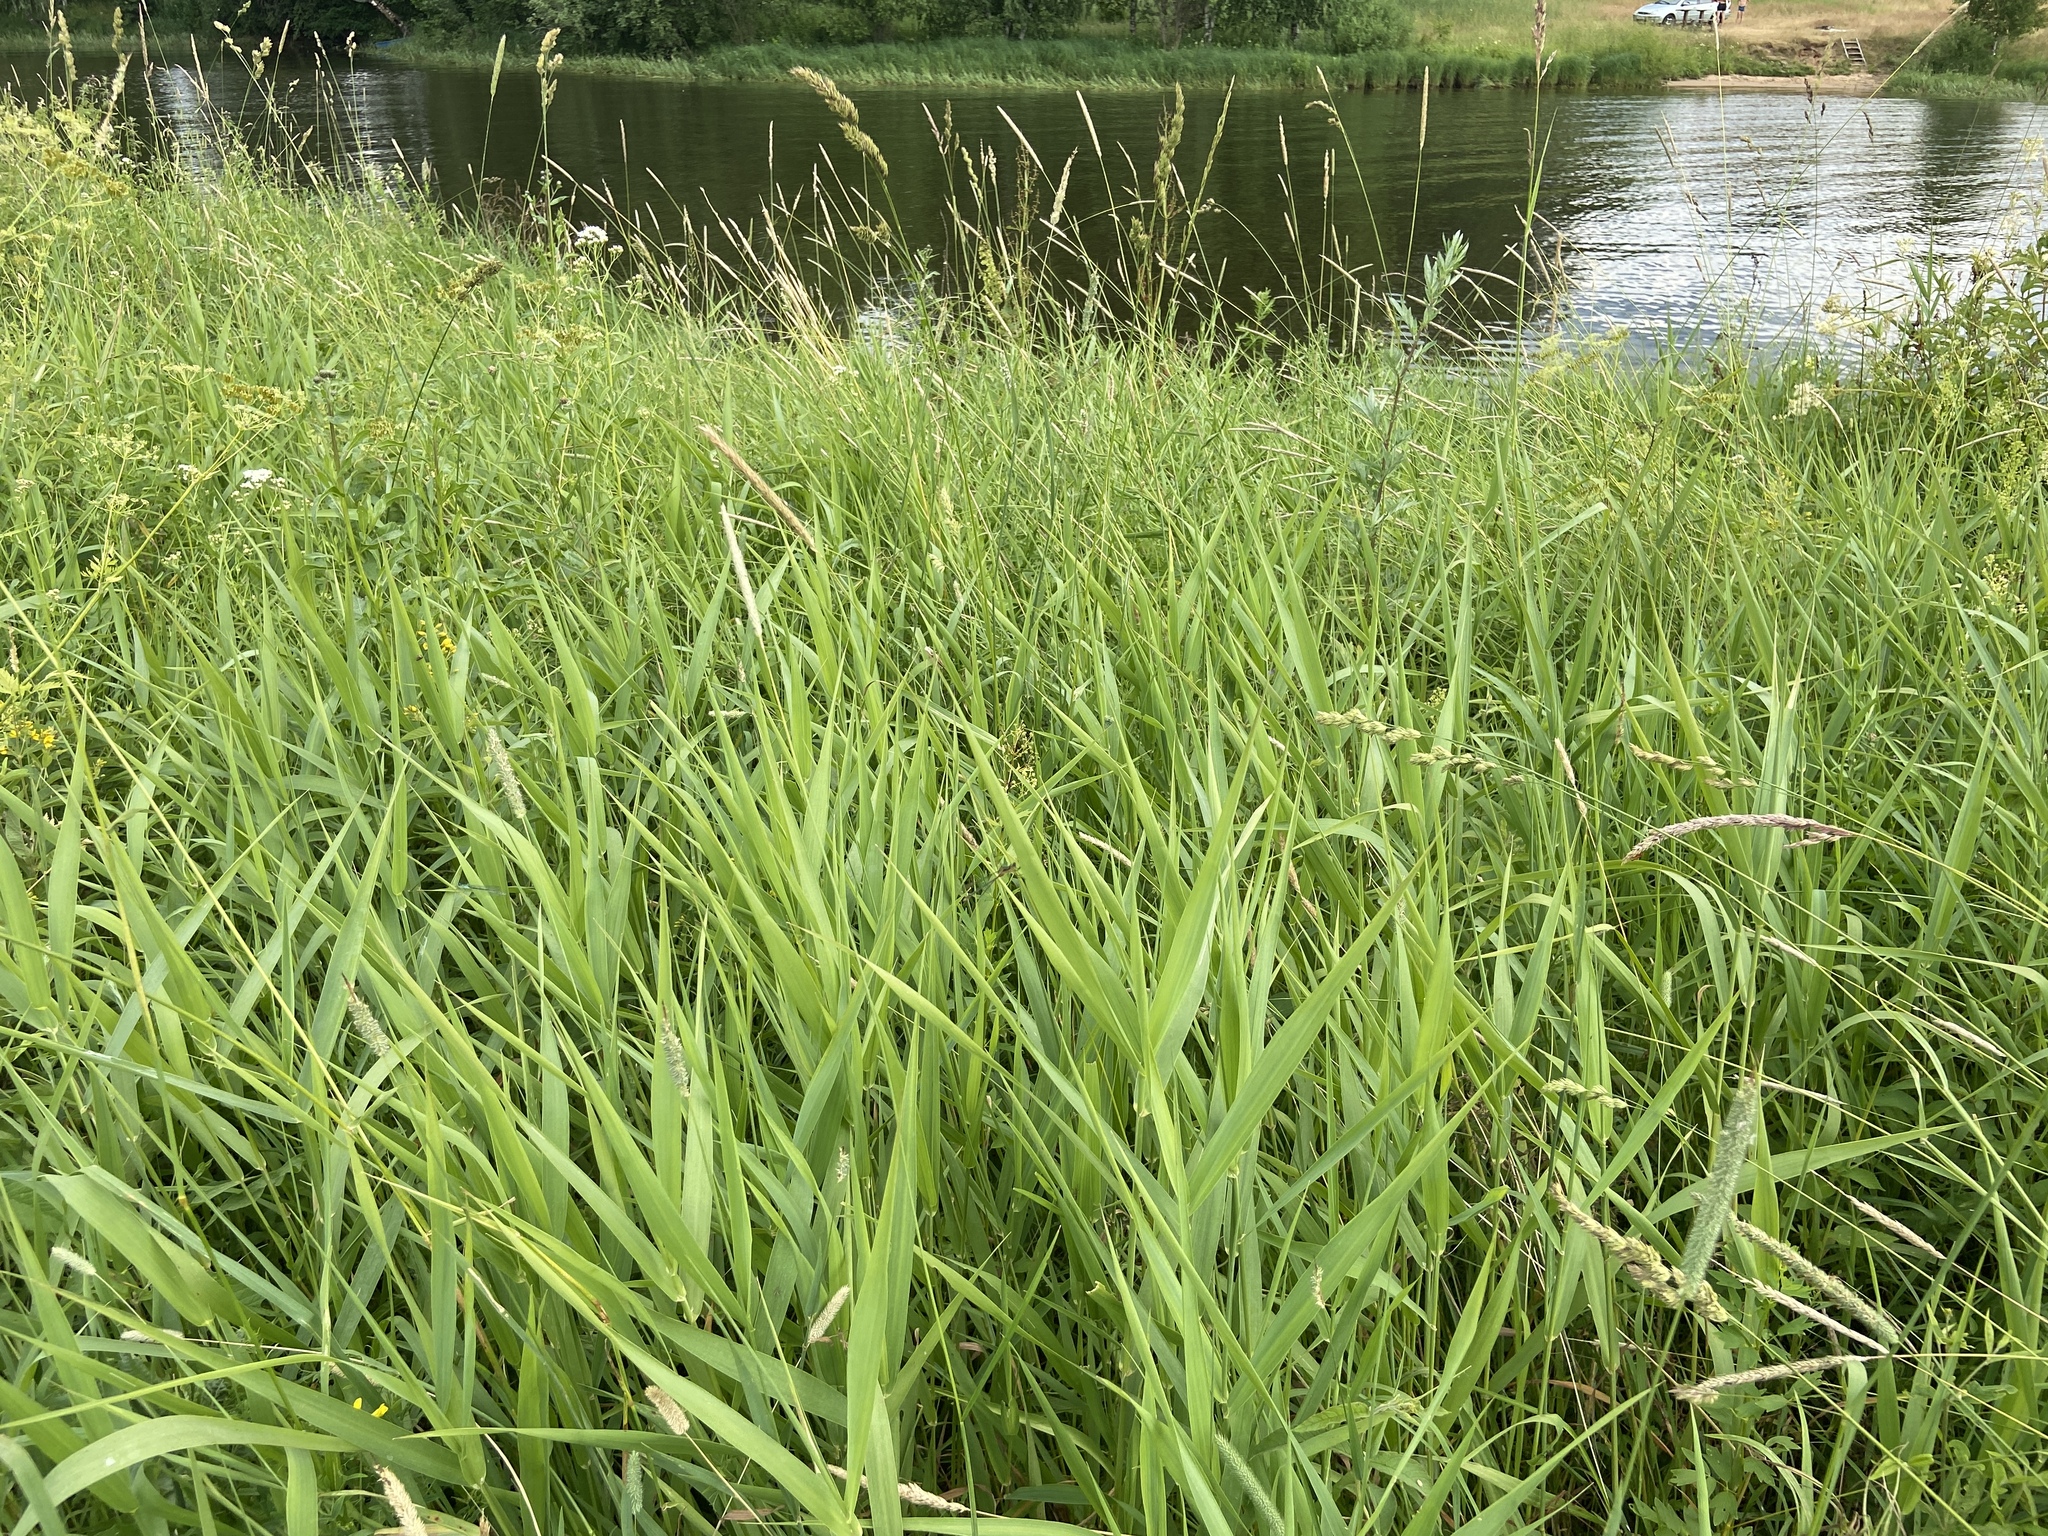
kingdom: Plantae
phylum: Tracheophyta
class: Liliopsida
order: Poales
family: Poaceae
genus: Phalaris
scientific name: Phalaris arundinacea
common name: Reed canary-grass
